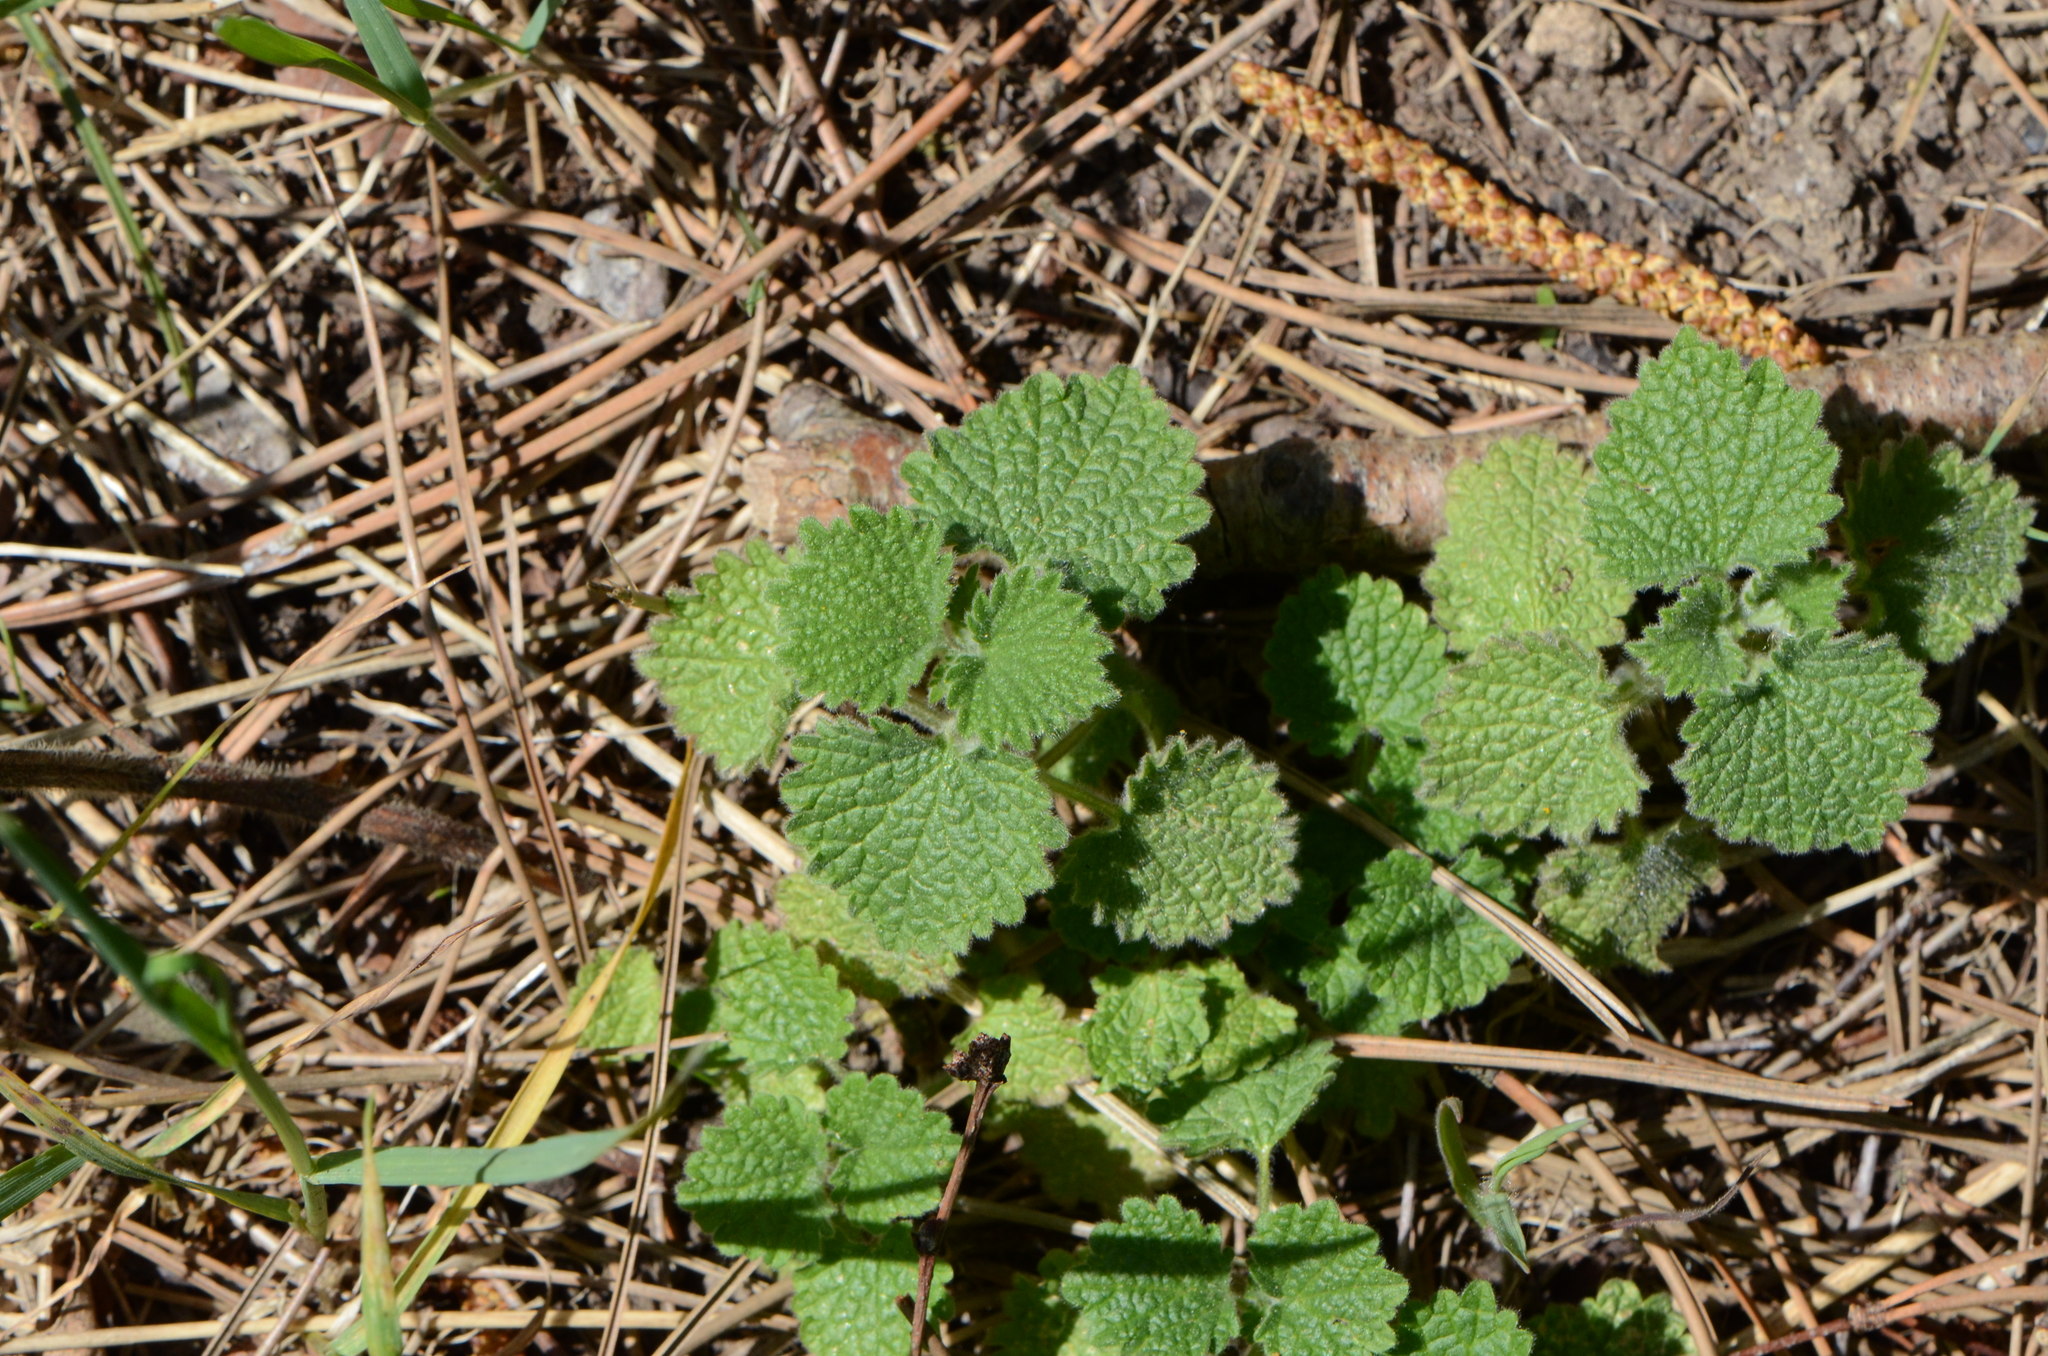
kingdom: Plantae
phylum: Tracheophyta
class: Magnoliopsida
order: Lamiales
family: Lamiaceae
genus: Ballota
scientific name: Ballota nigra
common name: Black horehound
